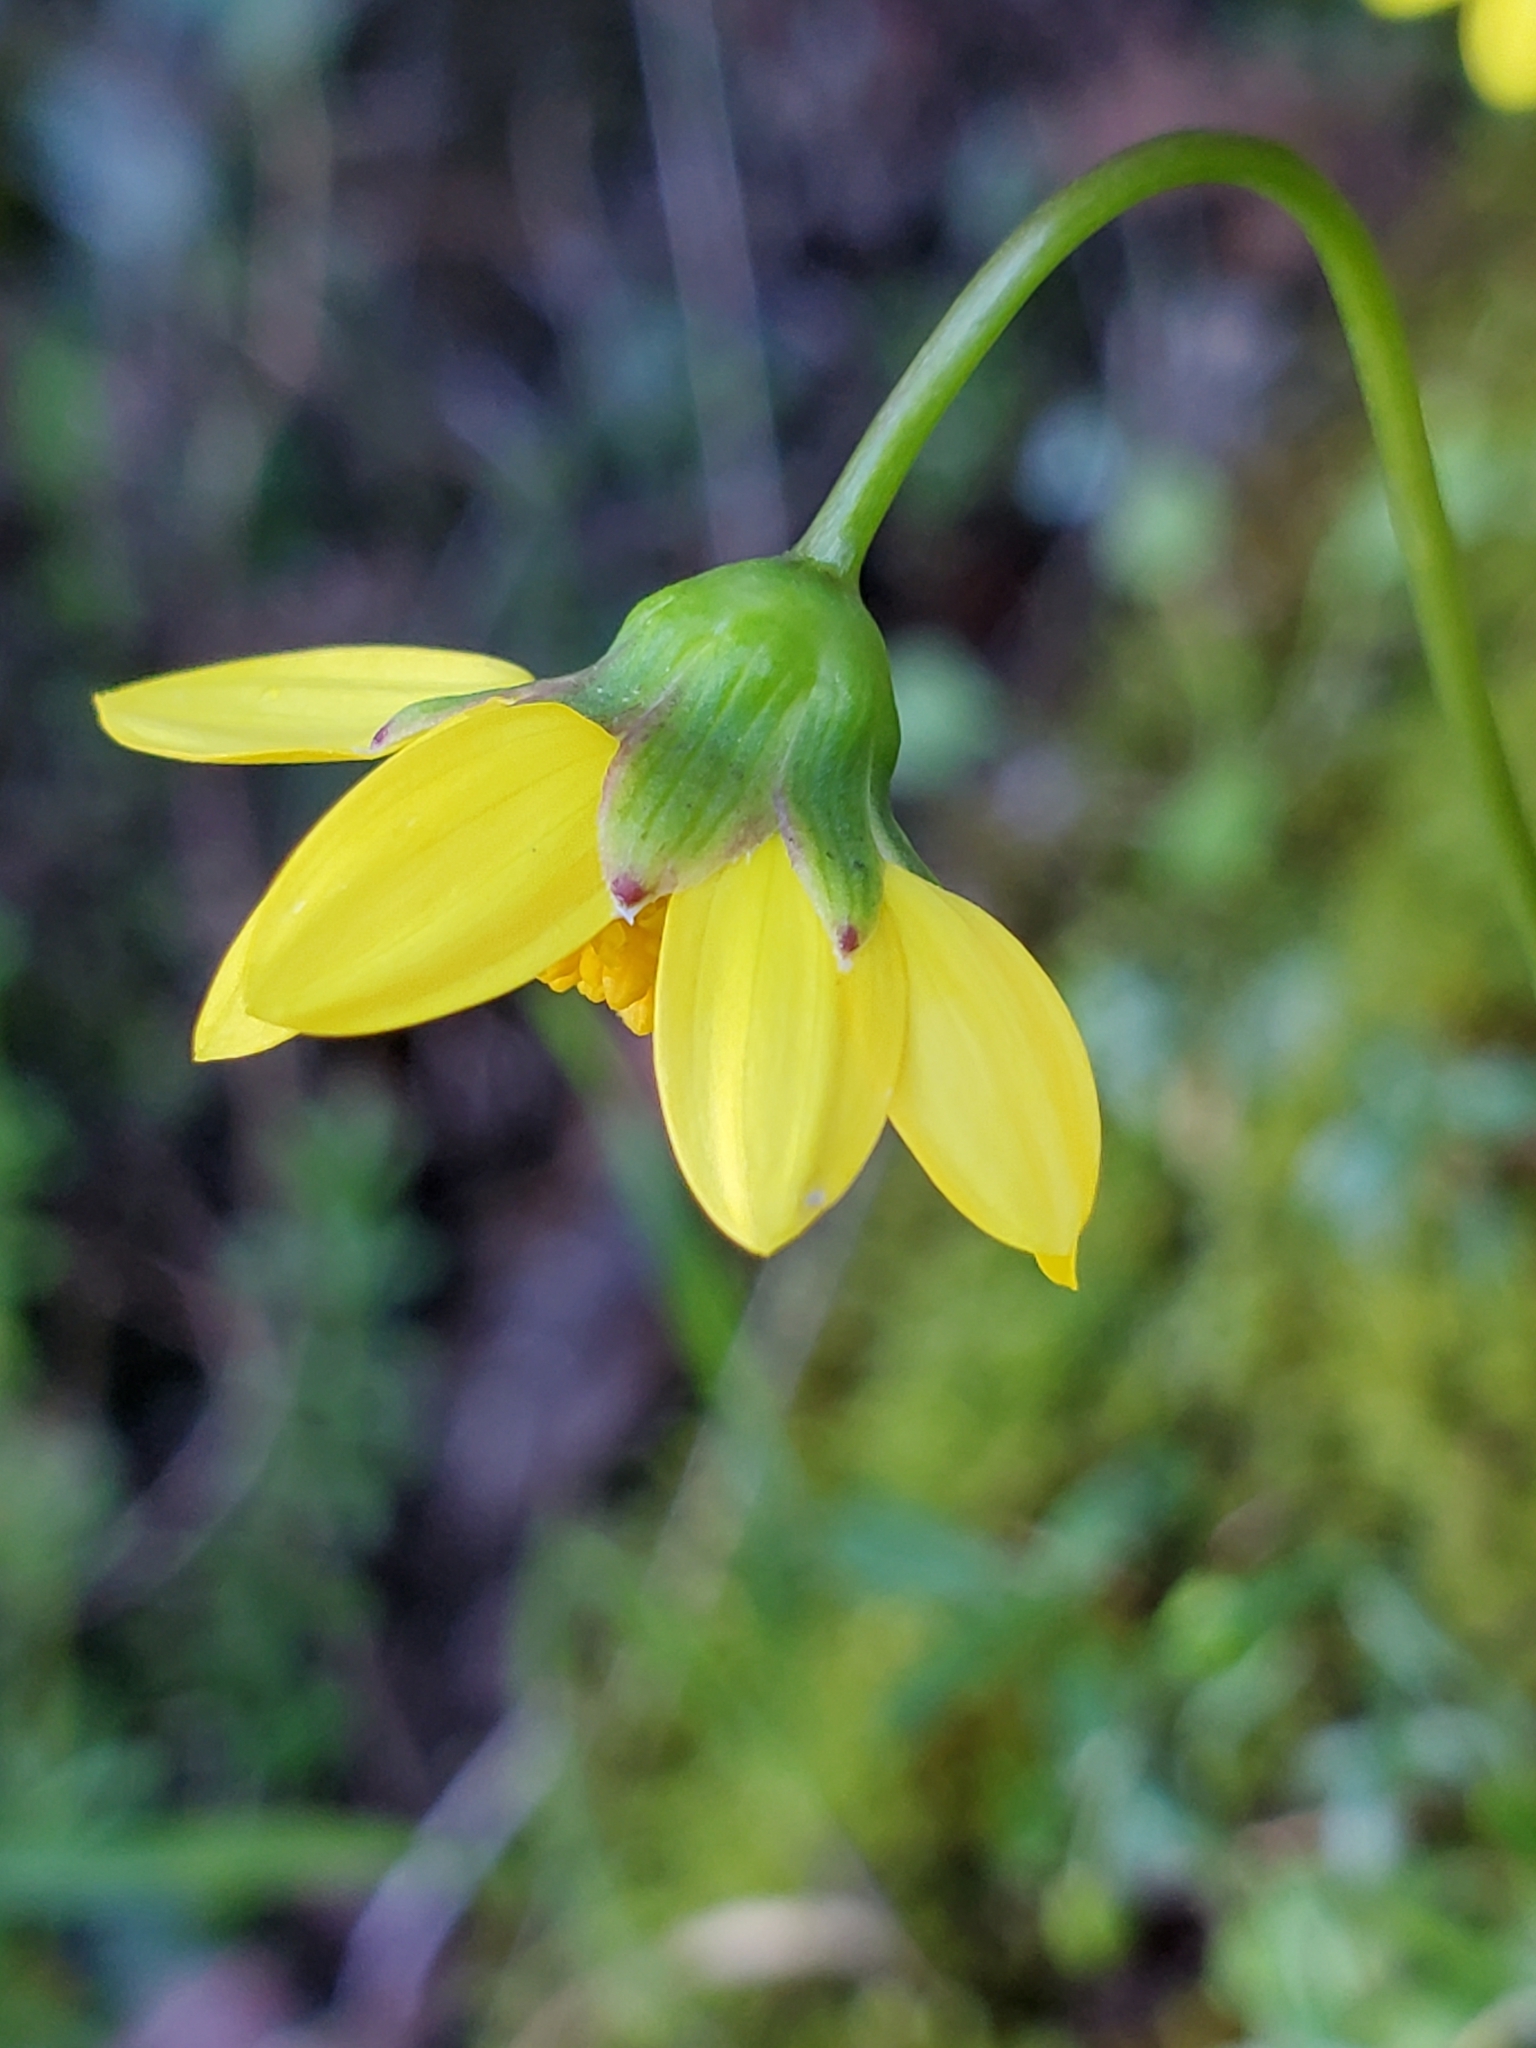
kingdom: Plantae
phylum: Tracheophyta
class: Magnoliopsida
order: Asterales
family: Asteraceae
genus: Crocidium
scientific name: Crocidium multicaule
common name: Common spring gold
